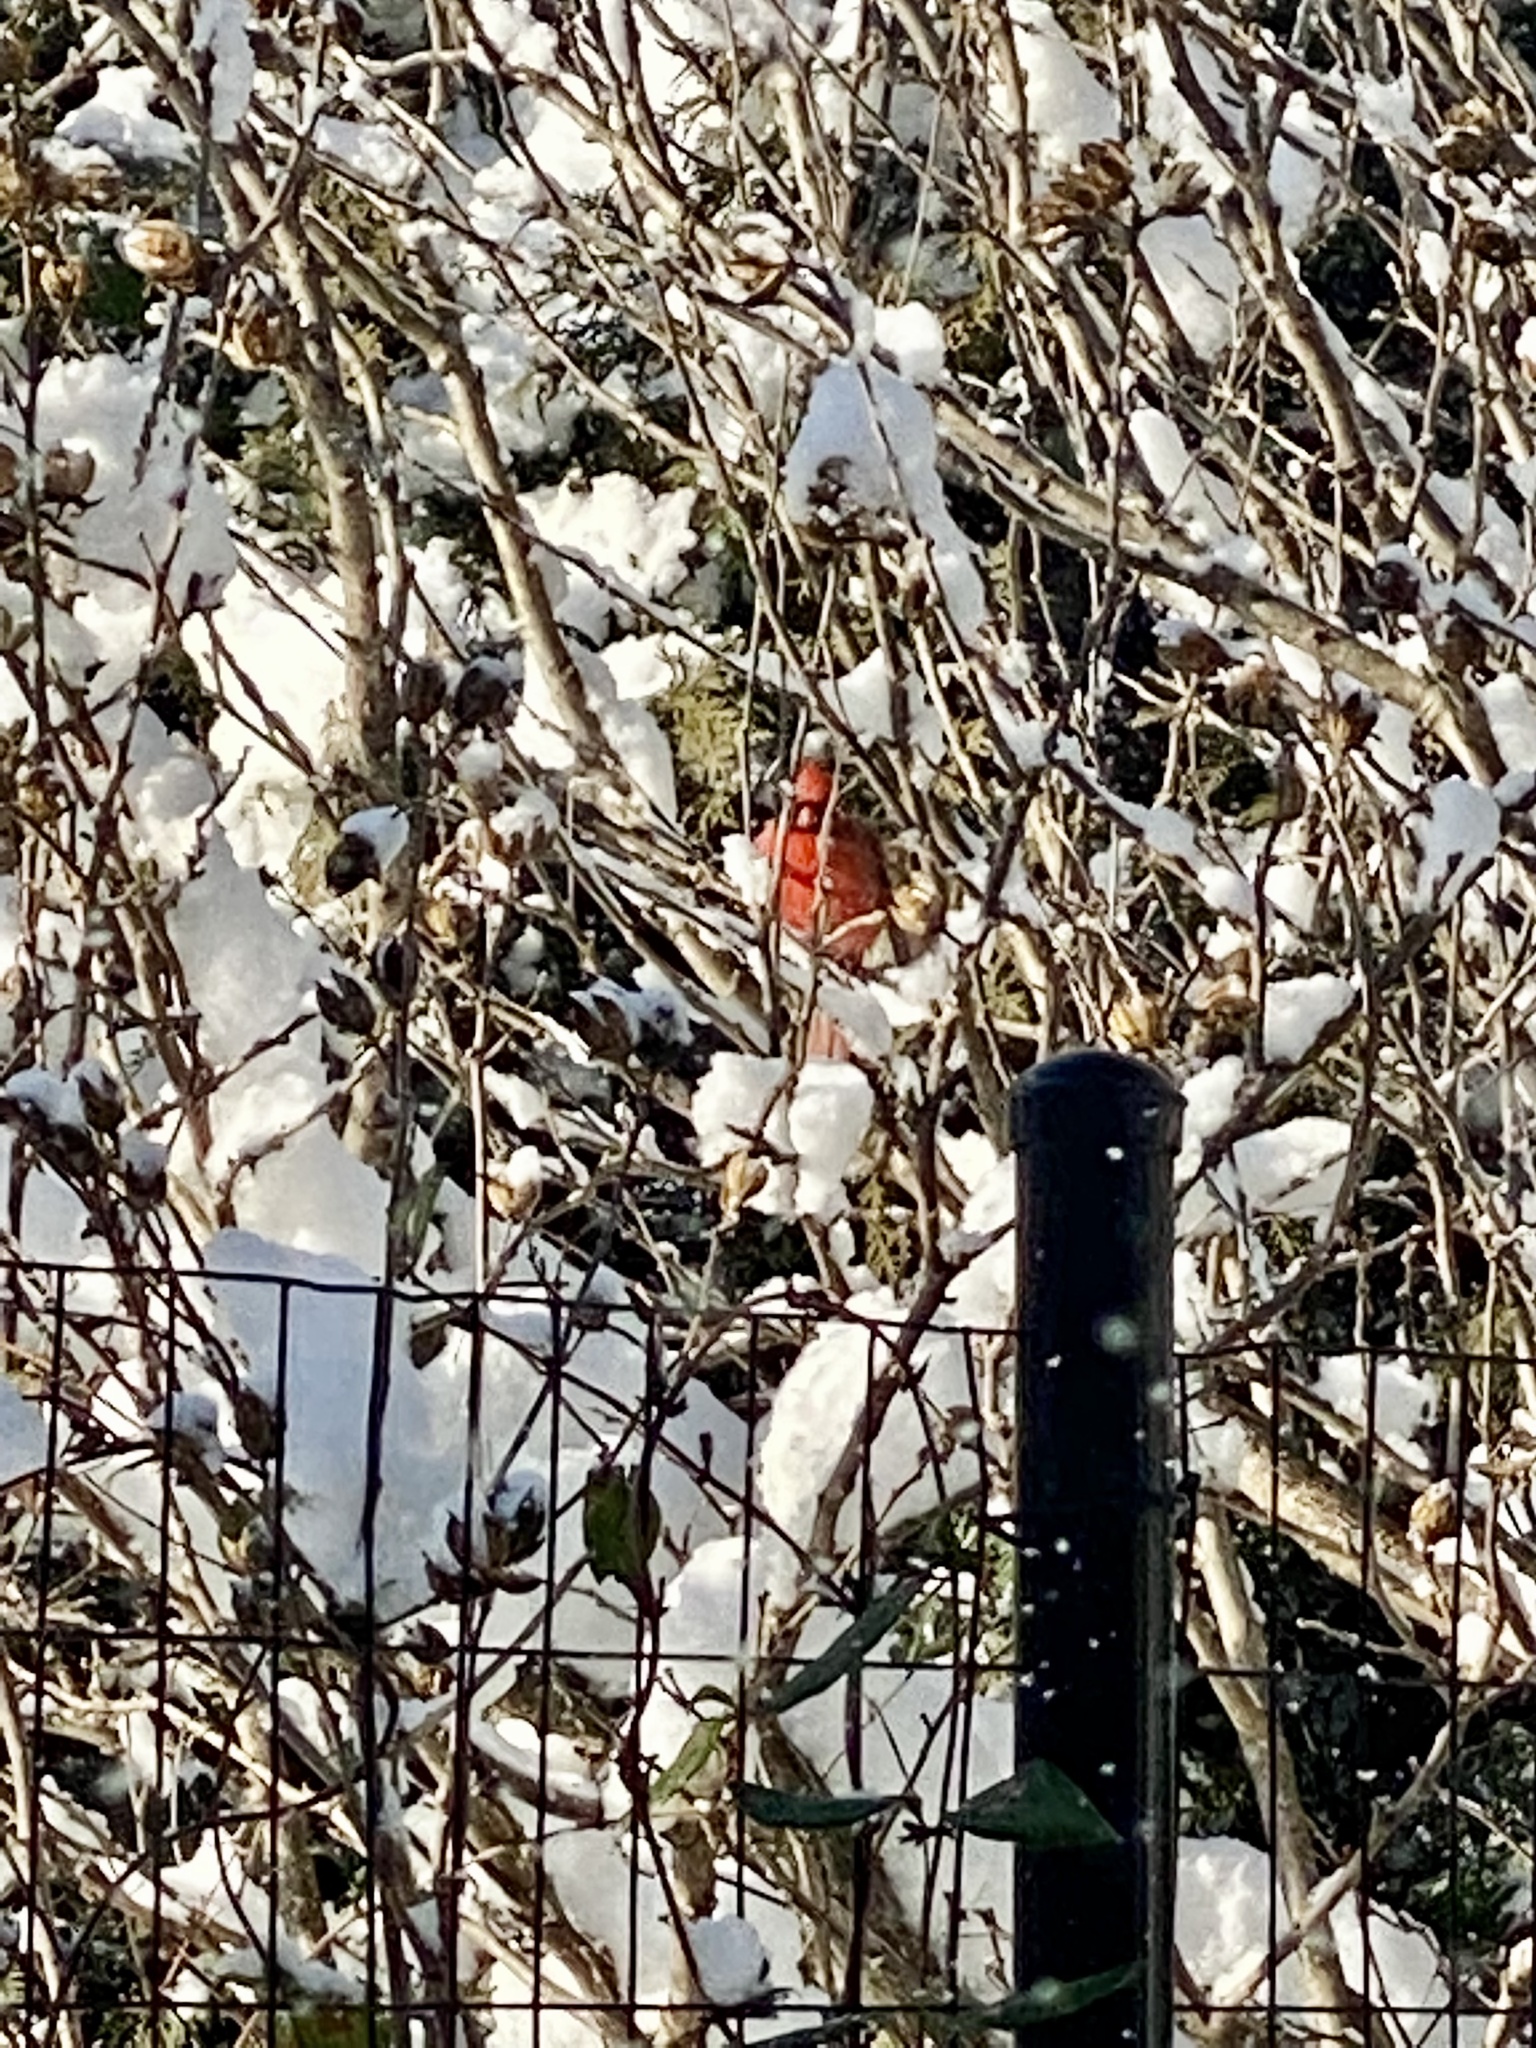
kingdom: Animalia
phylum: Chordata
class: Aves
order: Passeriformes
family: Cardinalidae
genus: Cardinalis
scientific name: Cardinalis cardinalis
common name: Northern cardinal
